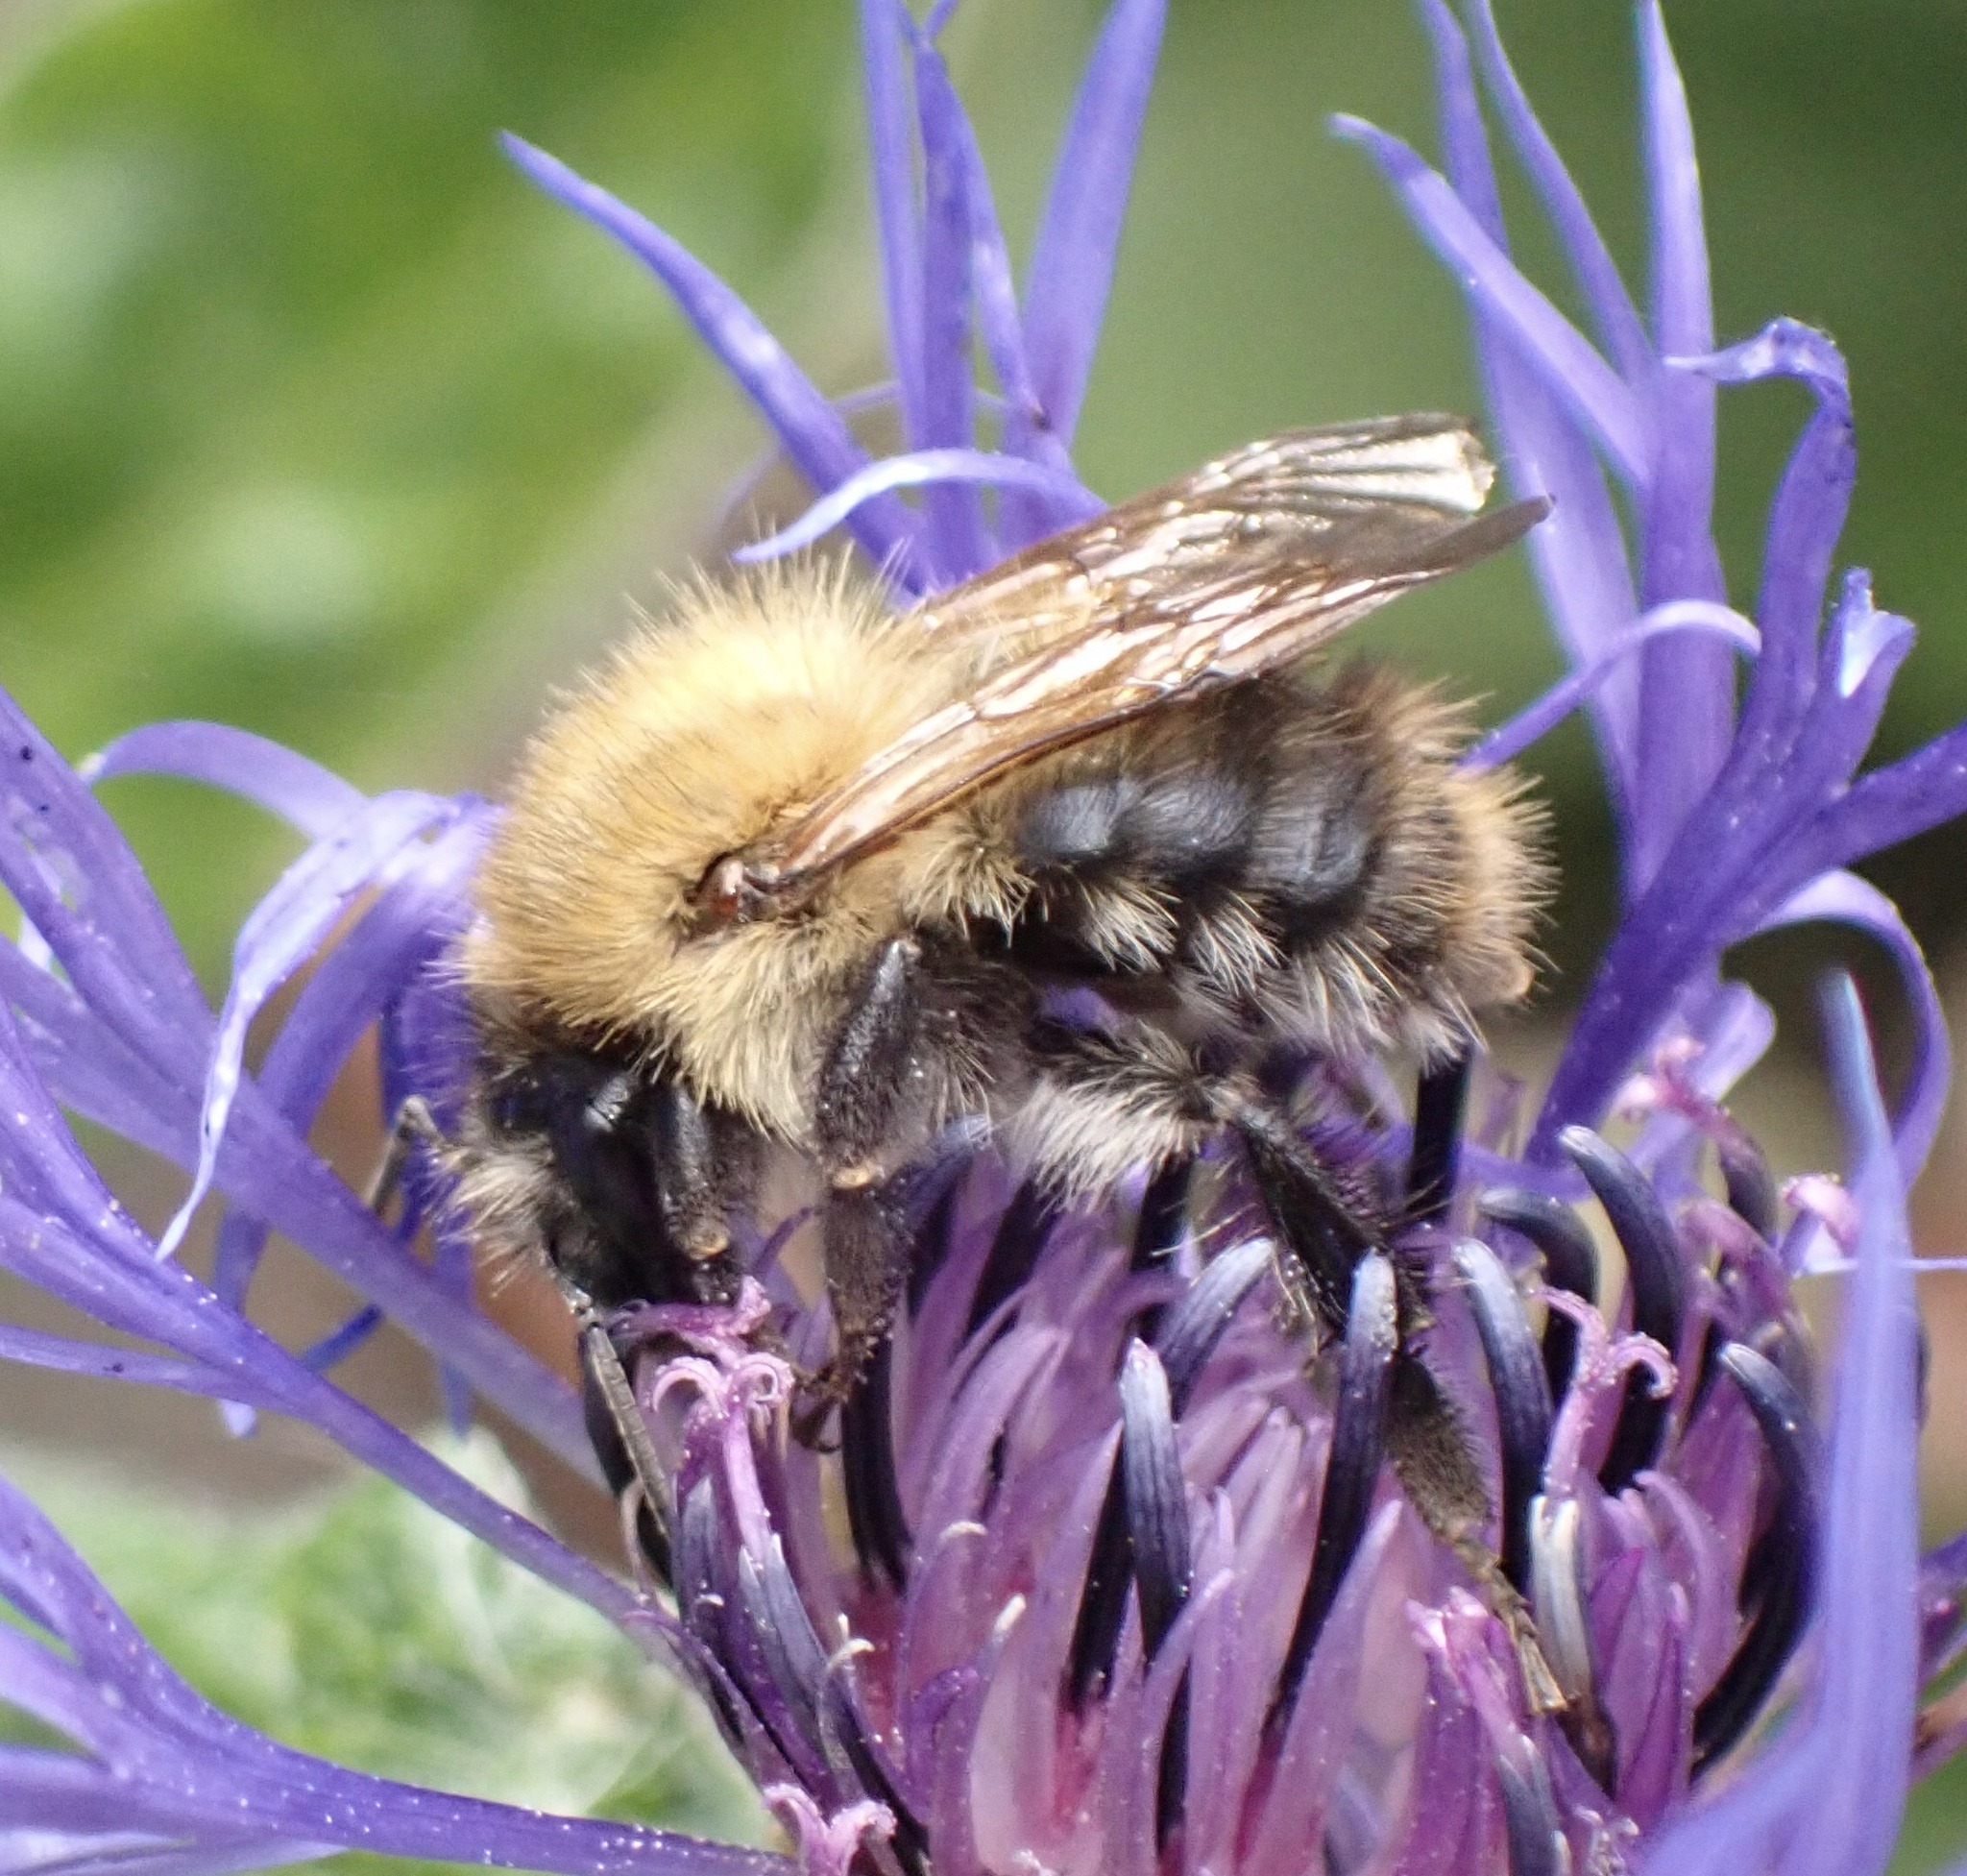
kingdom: Animalia
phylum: Arthropoda
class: Insecta
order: Hymenoptera
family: Apidae
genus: Bombus
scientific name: Bombus pascuorum
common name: Common carder bee
